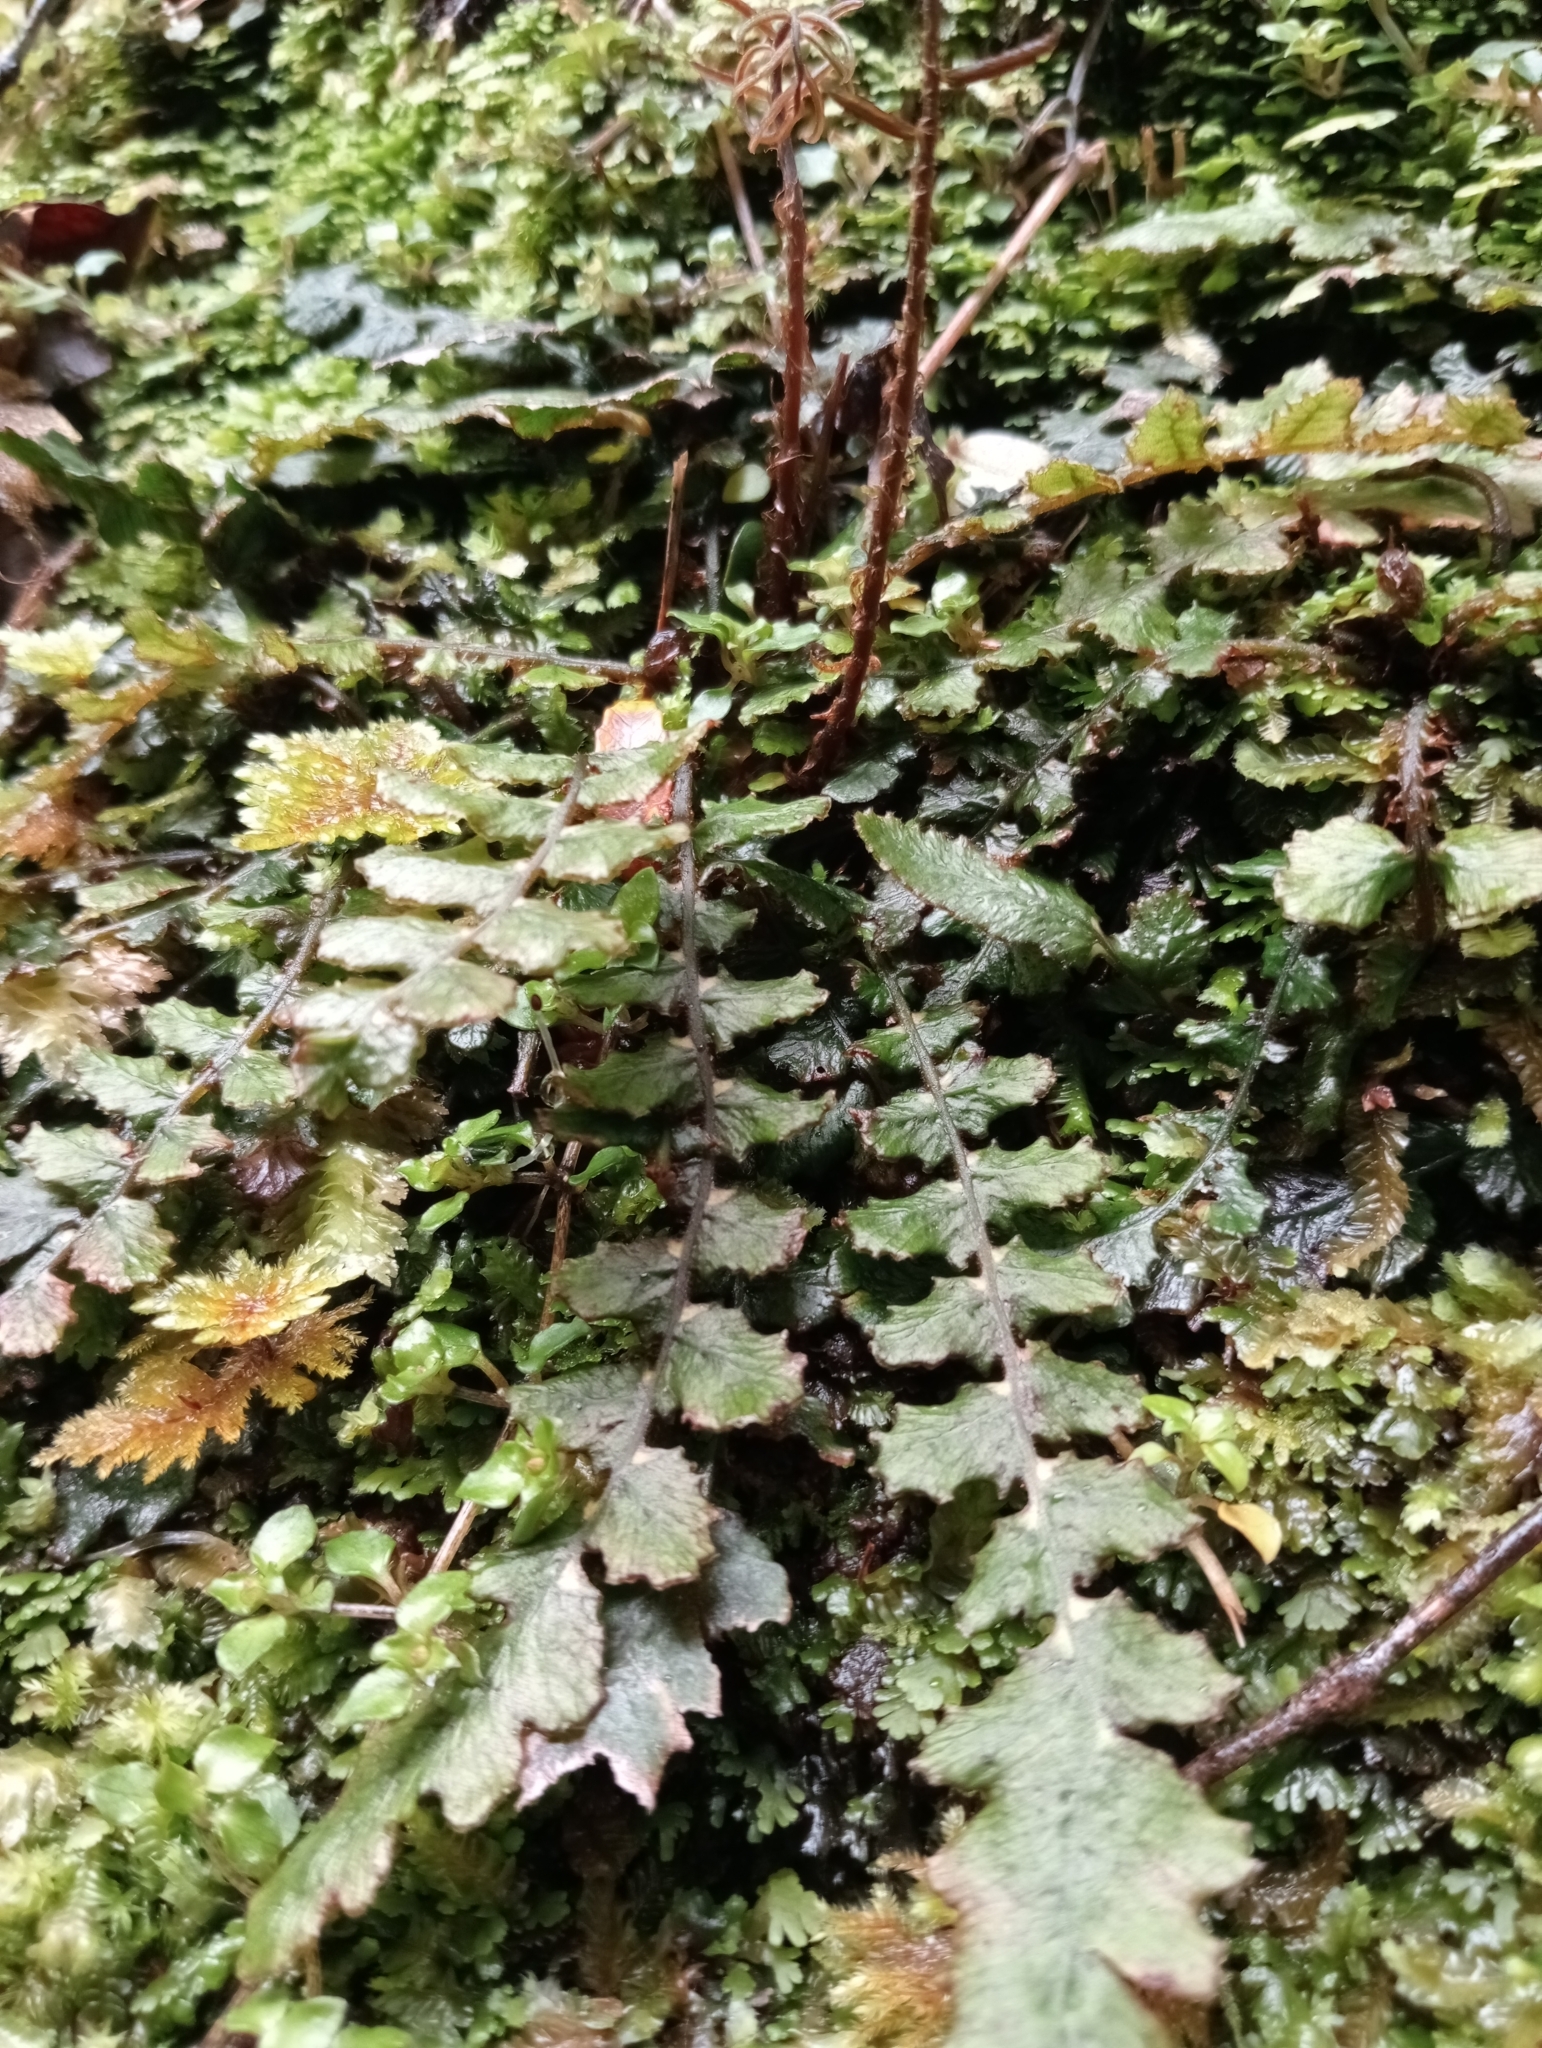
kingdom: Plantae
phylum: Tracheophyta
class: Polypodiopsida
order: Polypodiales
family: Blechnaceae
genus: Cranfillia
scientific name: Cranfillia nigra
